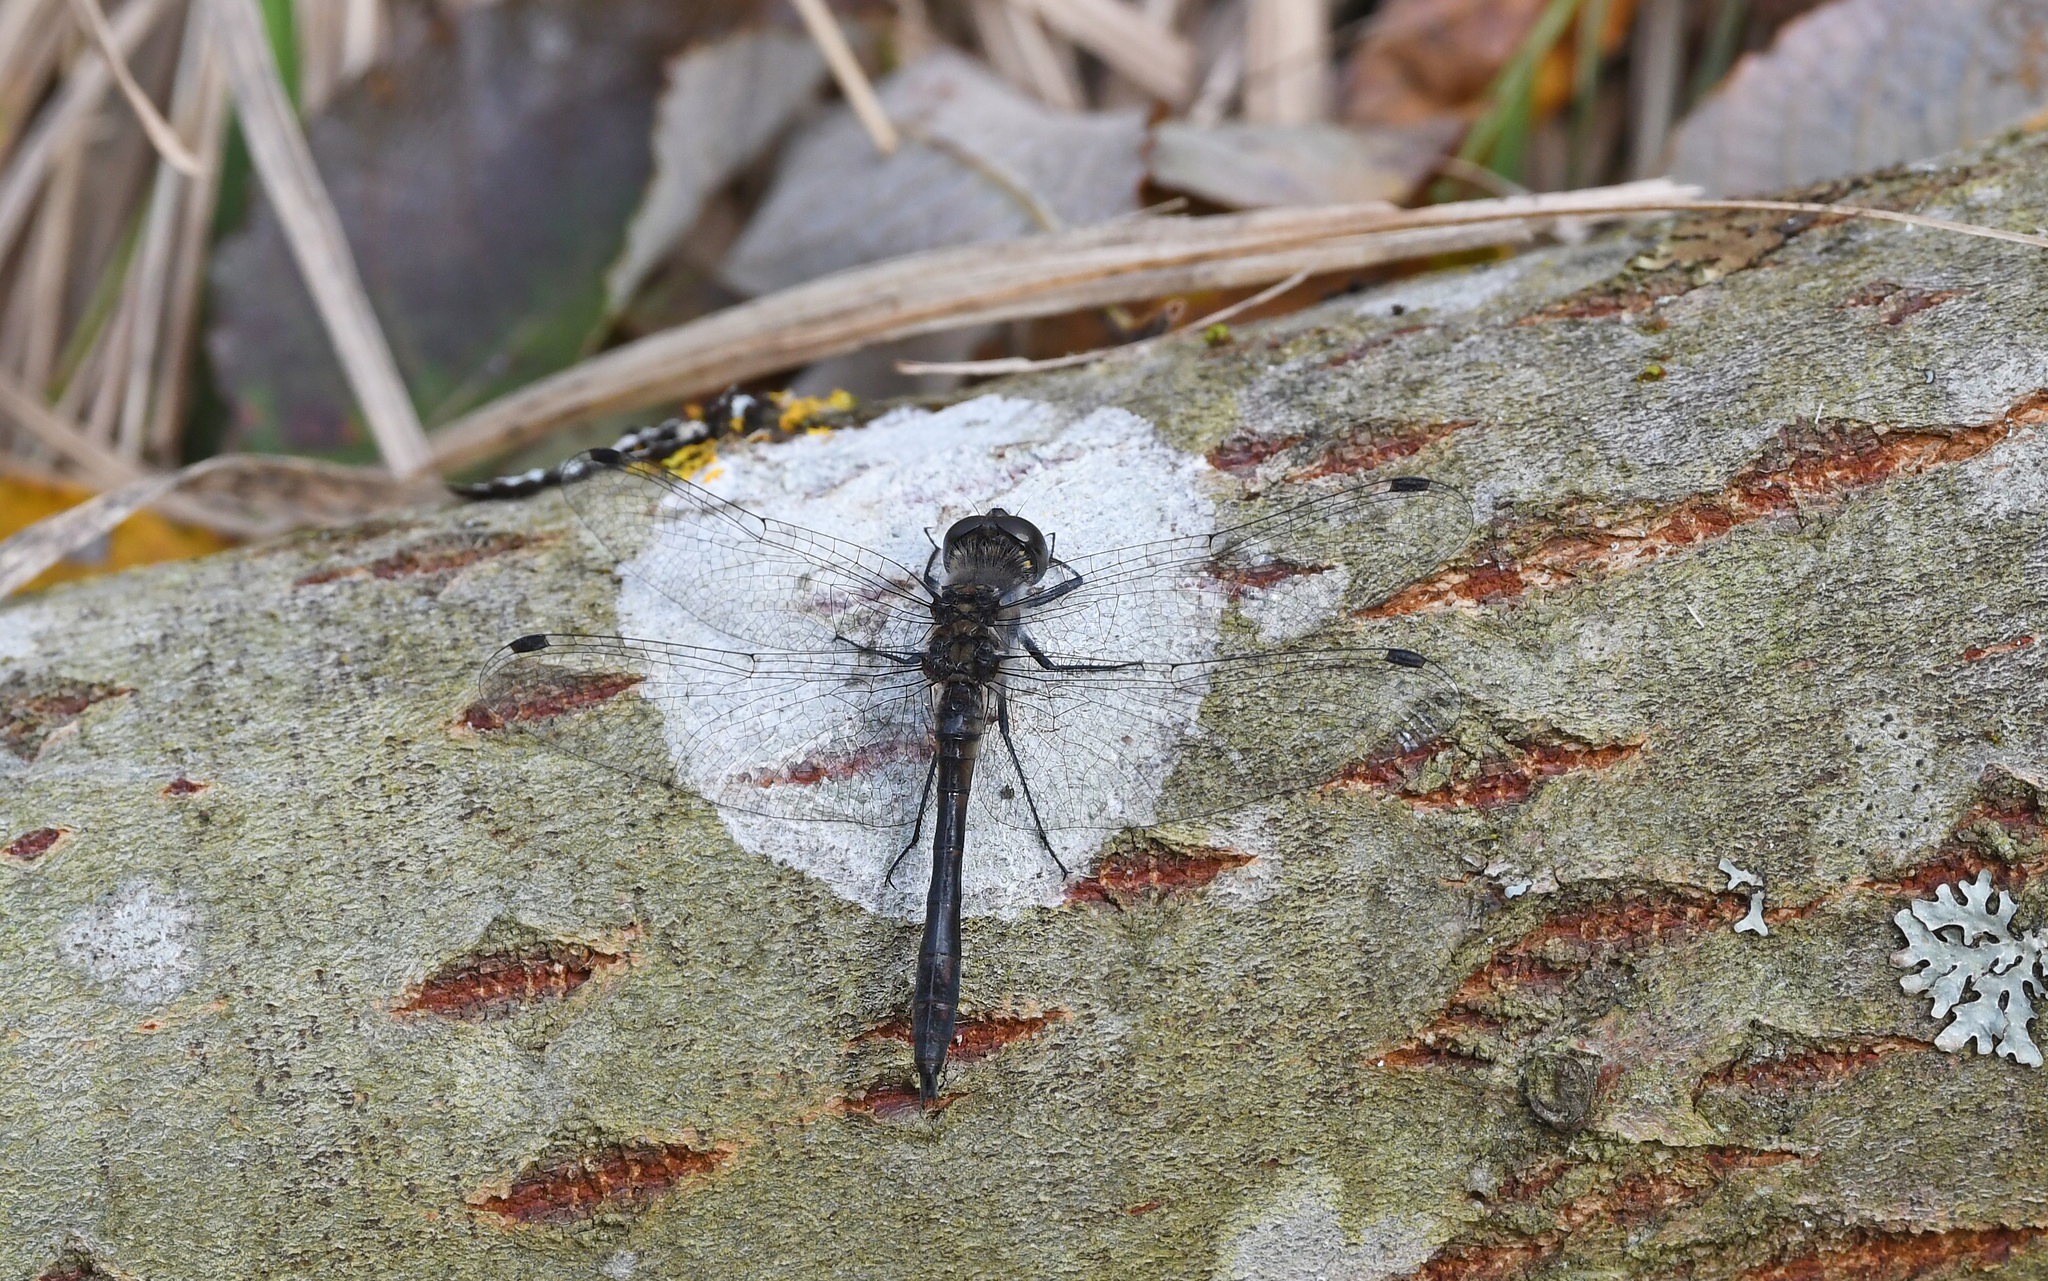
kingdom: Animalia
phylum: Arthropoda
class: Insecta
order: Odonata
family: Libellulidae
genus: Sympetrum
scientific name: Sympetrum danae
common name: Black darter
